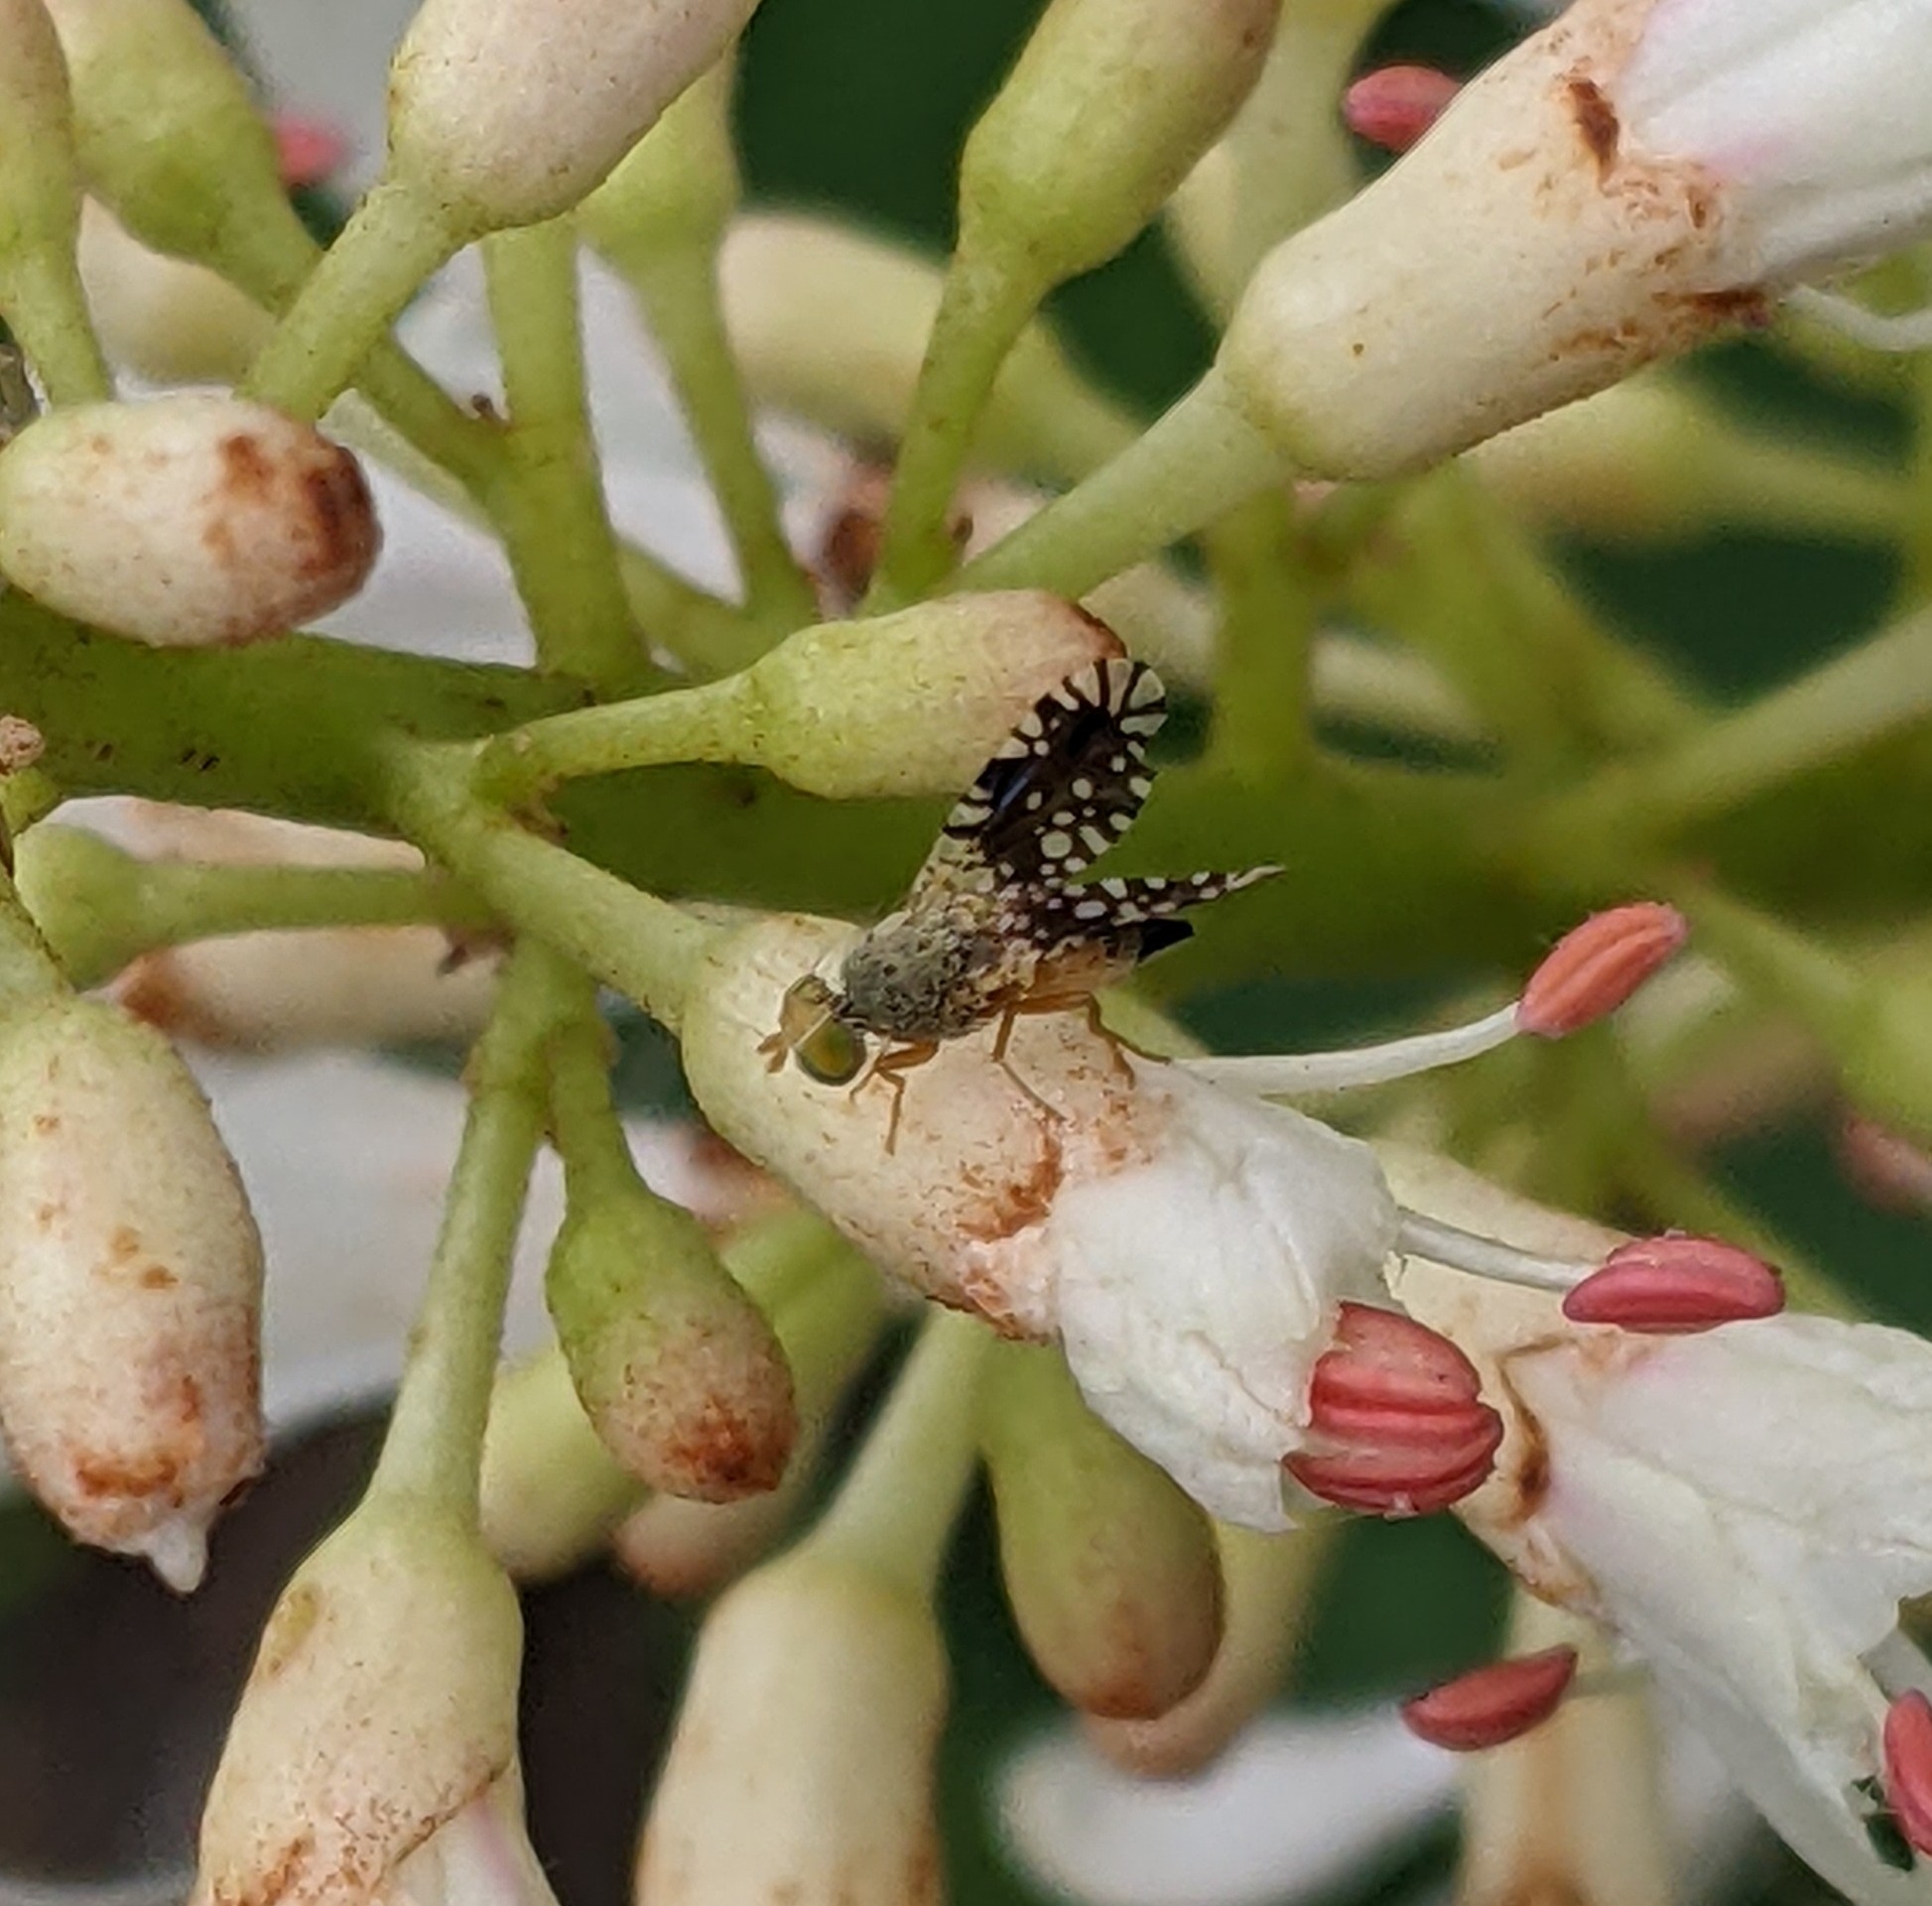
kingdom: Animalia
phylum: Arthropoda
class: Insecta
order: Diptera
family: Tephritidae
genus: Euaresta
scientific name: Euaresta bella
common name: Common ragweed fruit fly
